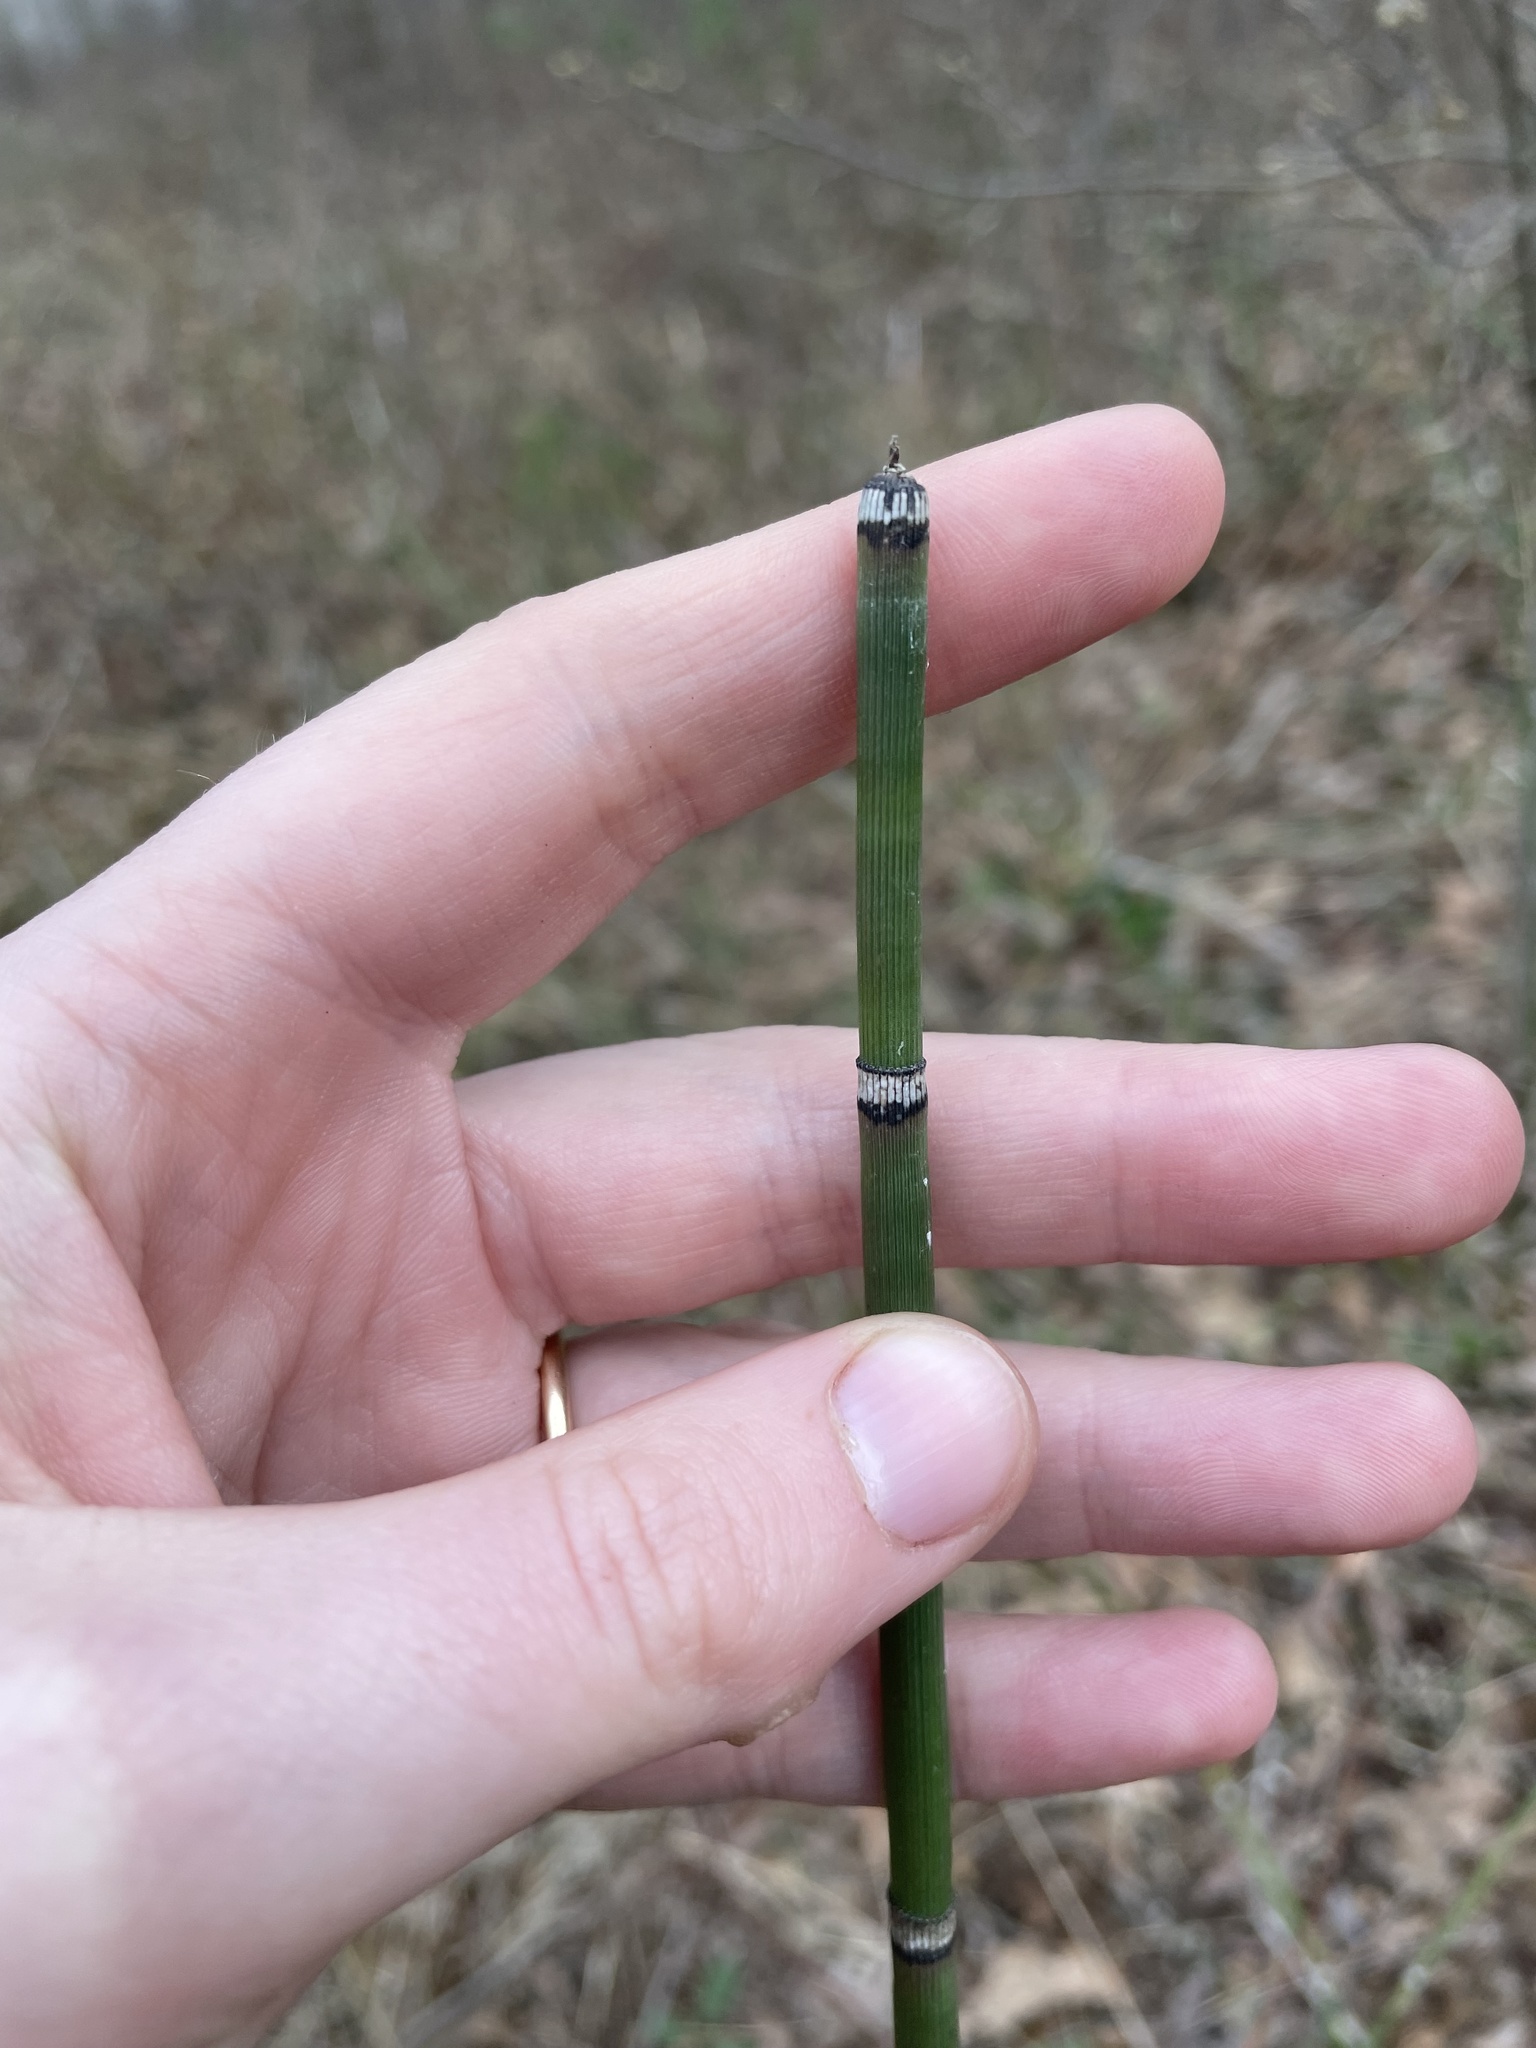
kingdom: Plantae
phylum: Tracheophyta
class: Polypodiopsida
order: Equisetales
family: Equisetaceae
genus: Equisetum
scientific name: Equisetum hyemale
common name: Rough horsetail
